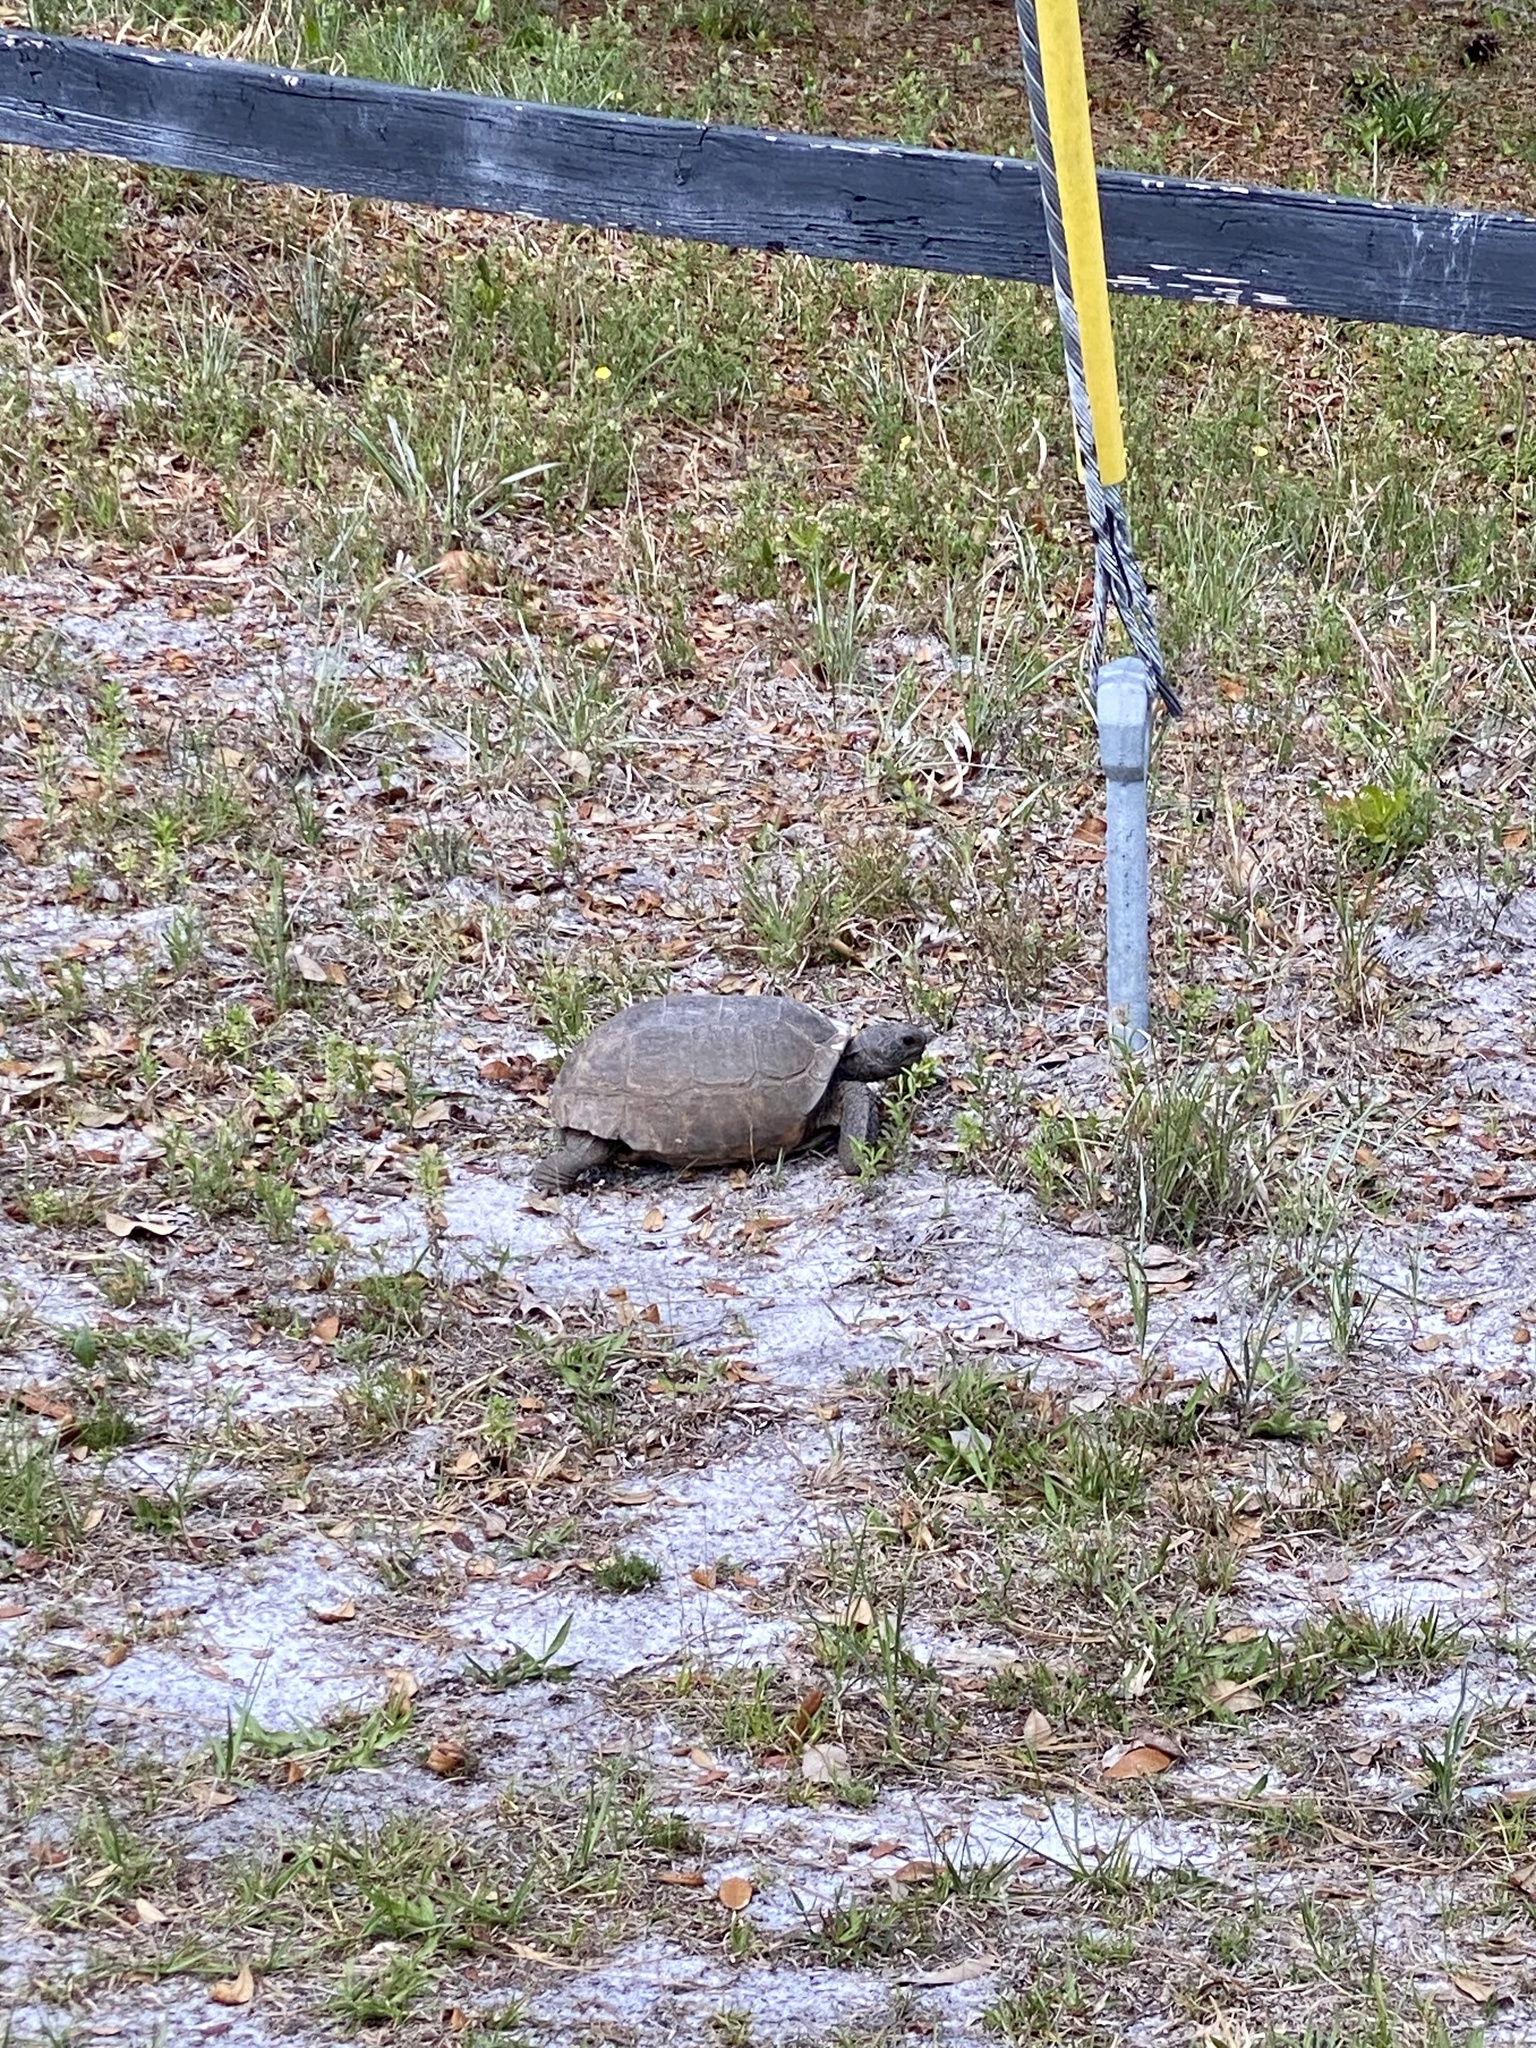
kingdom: Animalia
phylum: Chordata
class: Testudines
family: Testudinidae
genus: Gopherus
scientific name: Gopherus polyphemus
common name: Florida gopher tortoise
